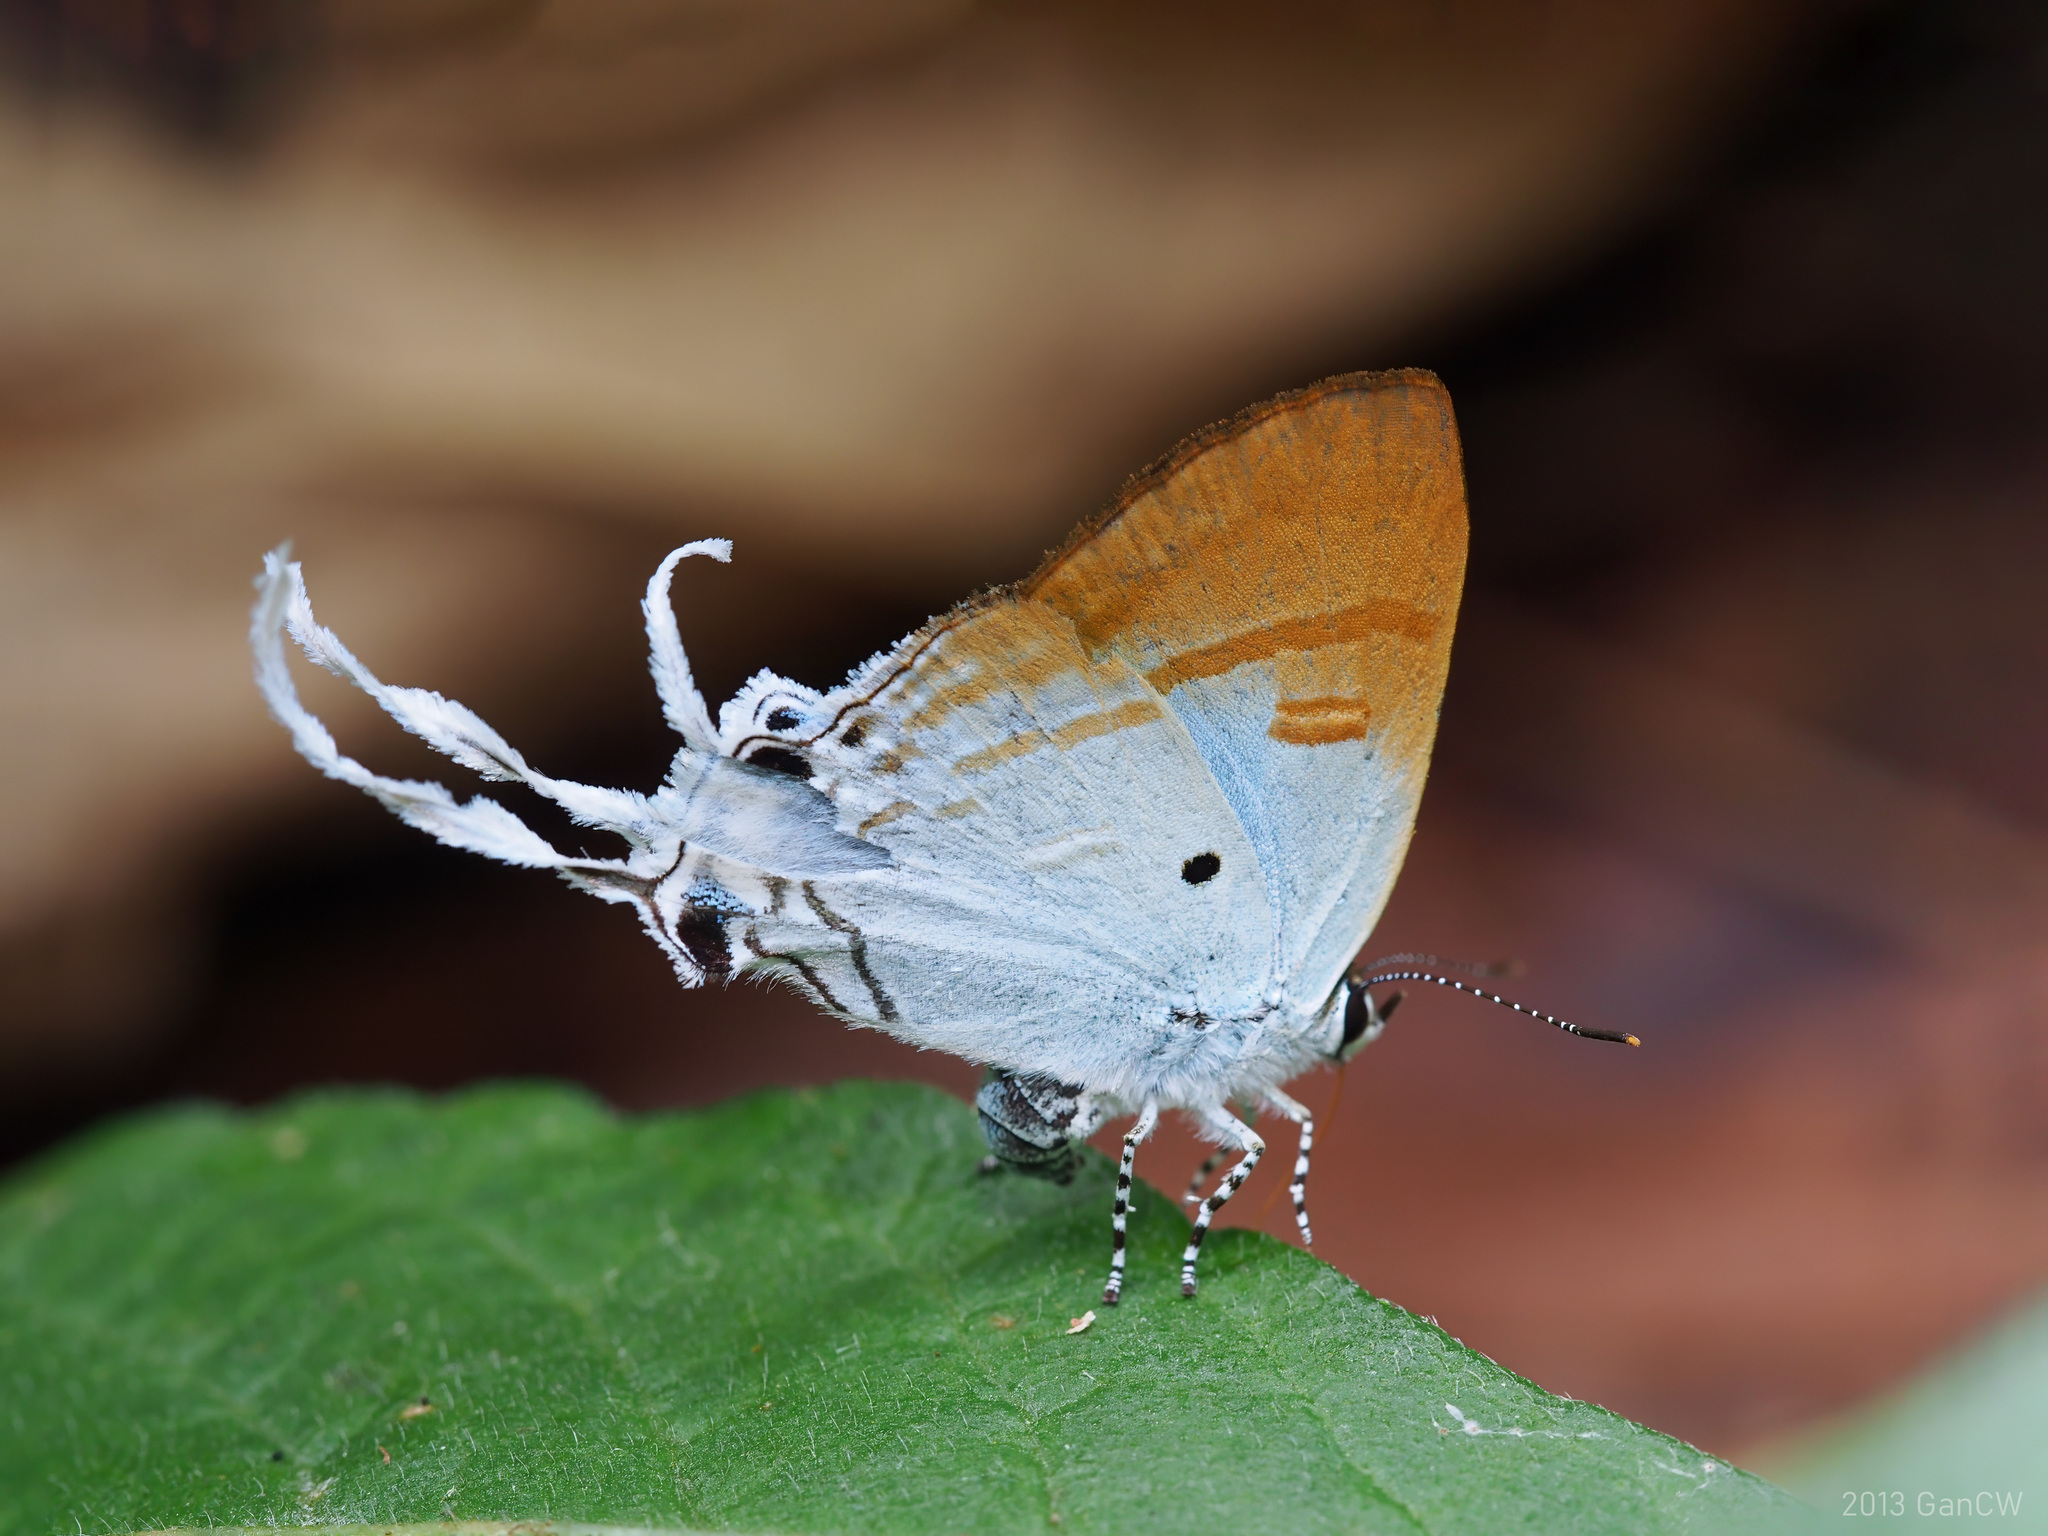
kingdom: Animalia
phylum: Arthropoda
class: Insecta
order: Lepidoptera
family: Lycaenidae
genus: Zeltus
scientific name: Zeltus amasa
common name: Fluffy tit
